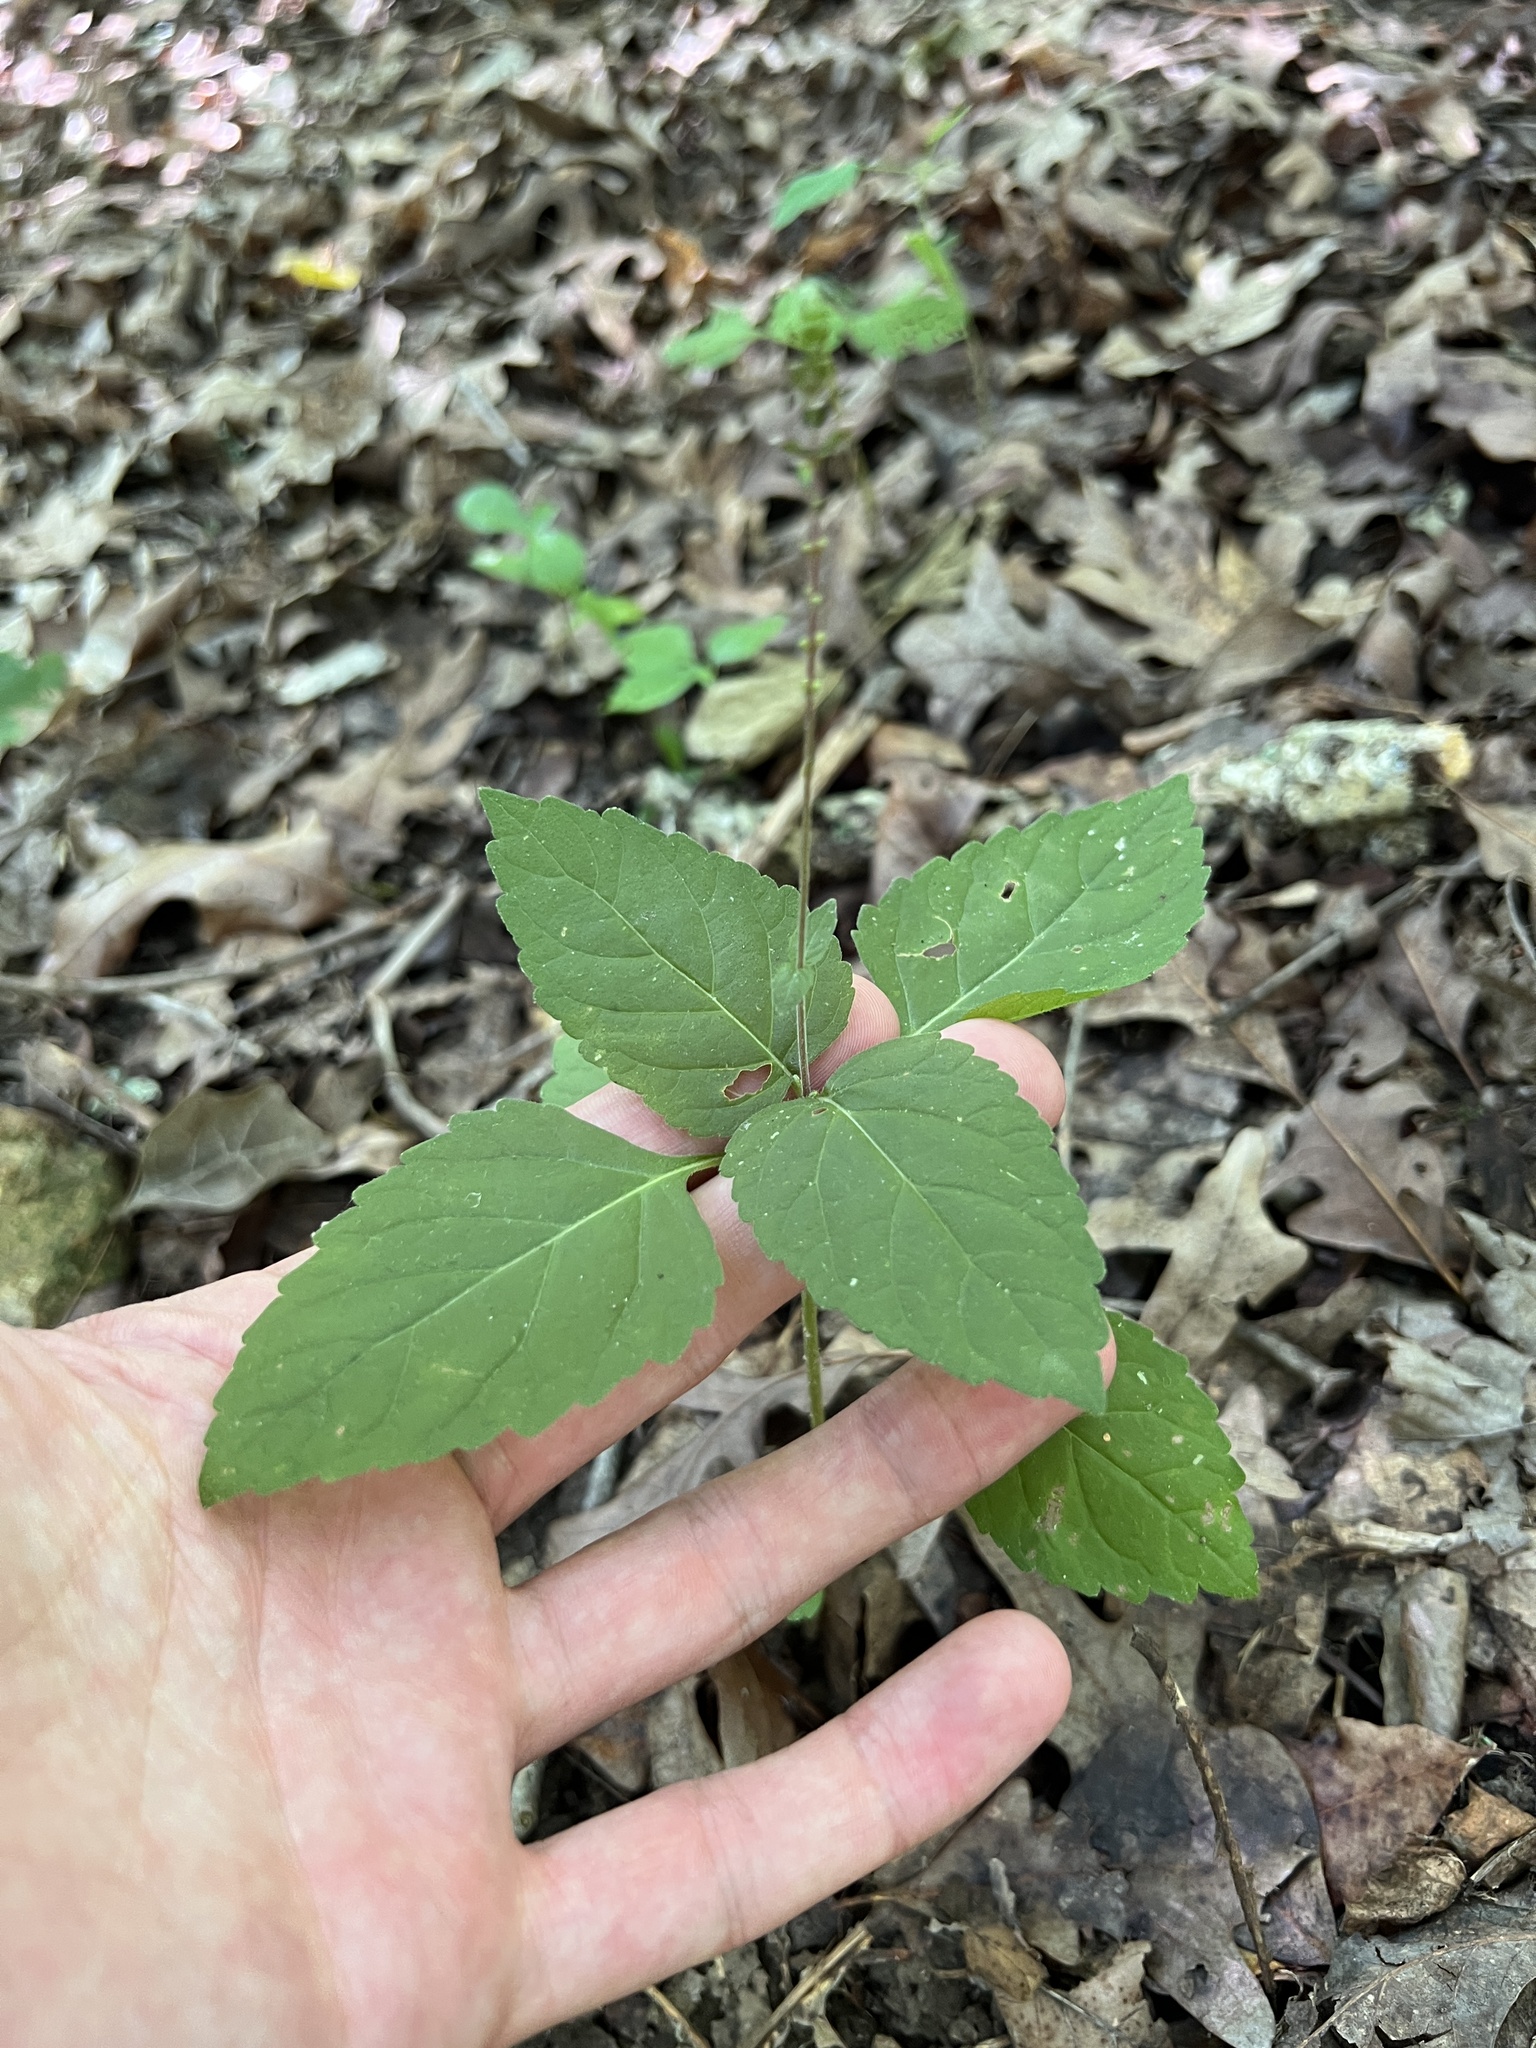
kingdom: Plantae
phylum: Tracheophyta
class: Magnoliopsida
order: Lamiales
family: Phrymaceae
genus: Phryma
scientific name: Phryma leptostachya
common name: American lopseed
